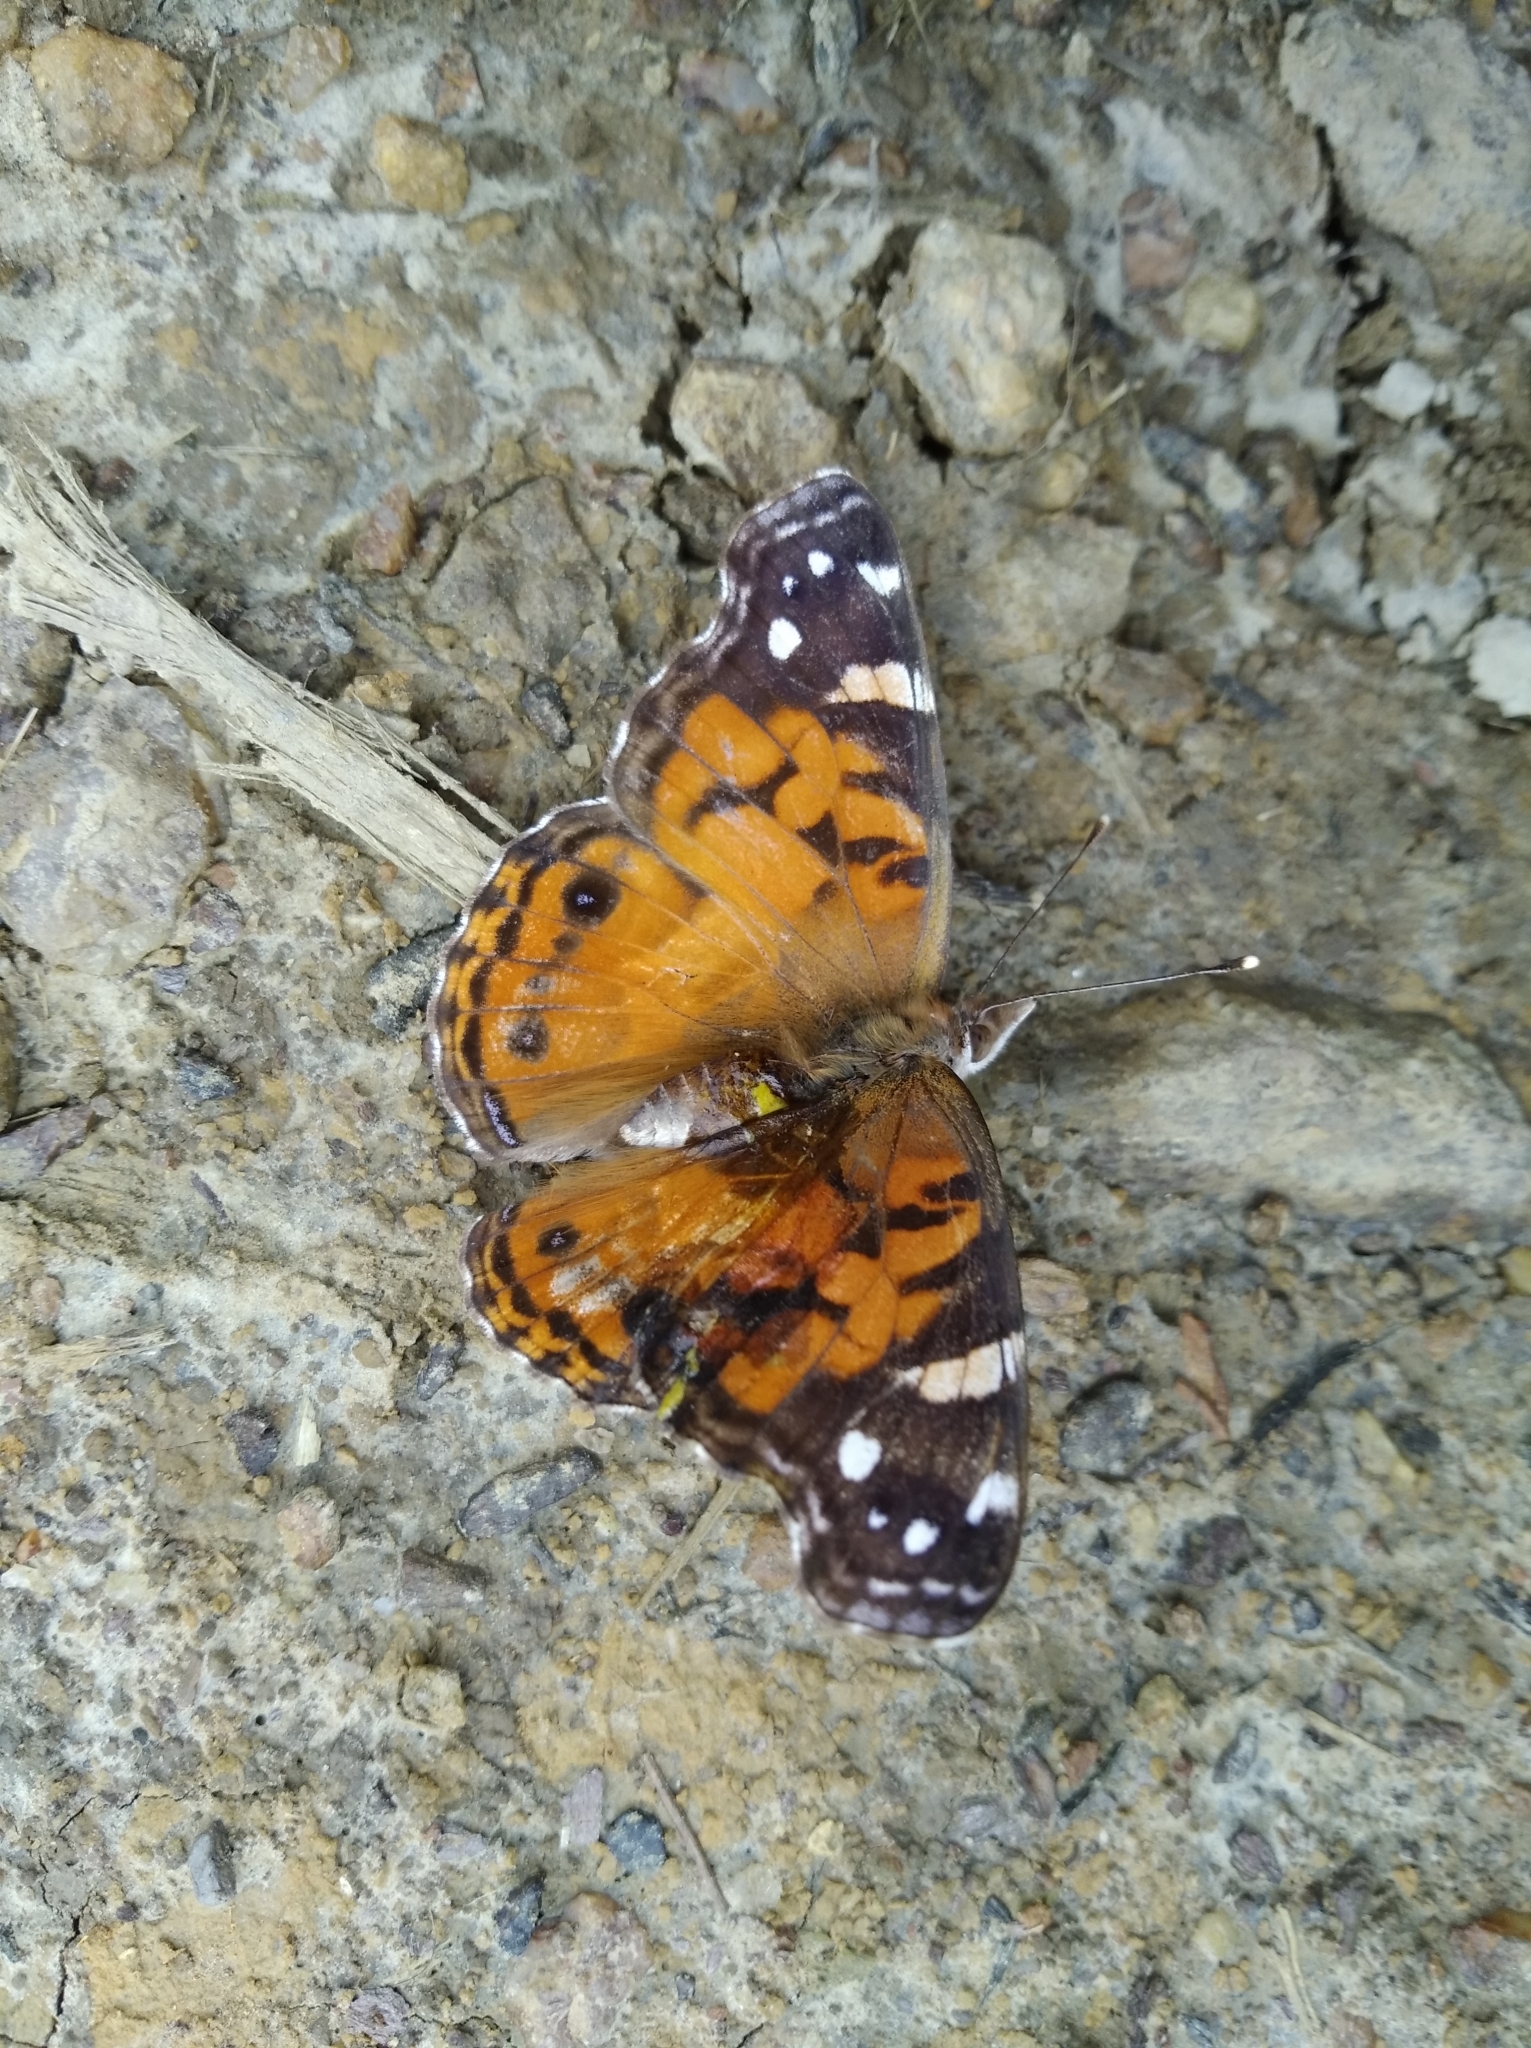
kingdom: Animalia
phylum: Arthropoda
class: Insecta
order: Lepidoptera
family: Nymphalidae
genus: Vanessa
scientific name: Vanessa virginiensis
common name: American lady
